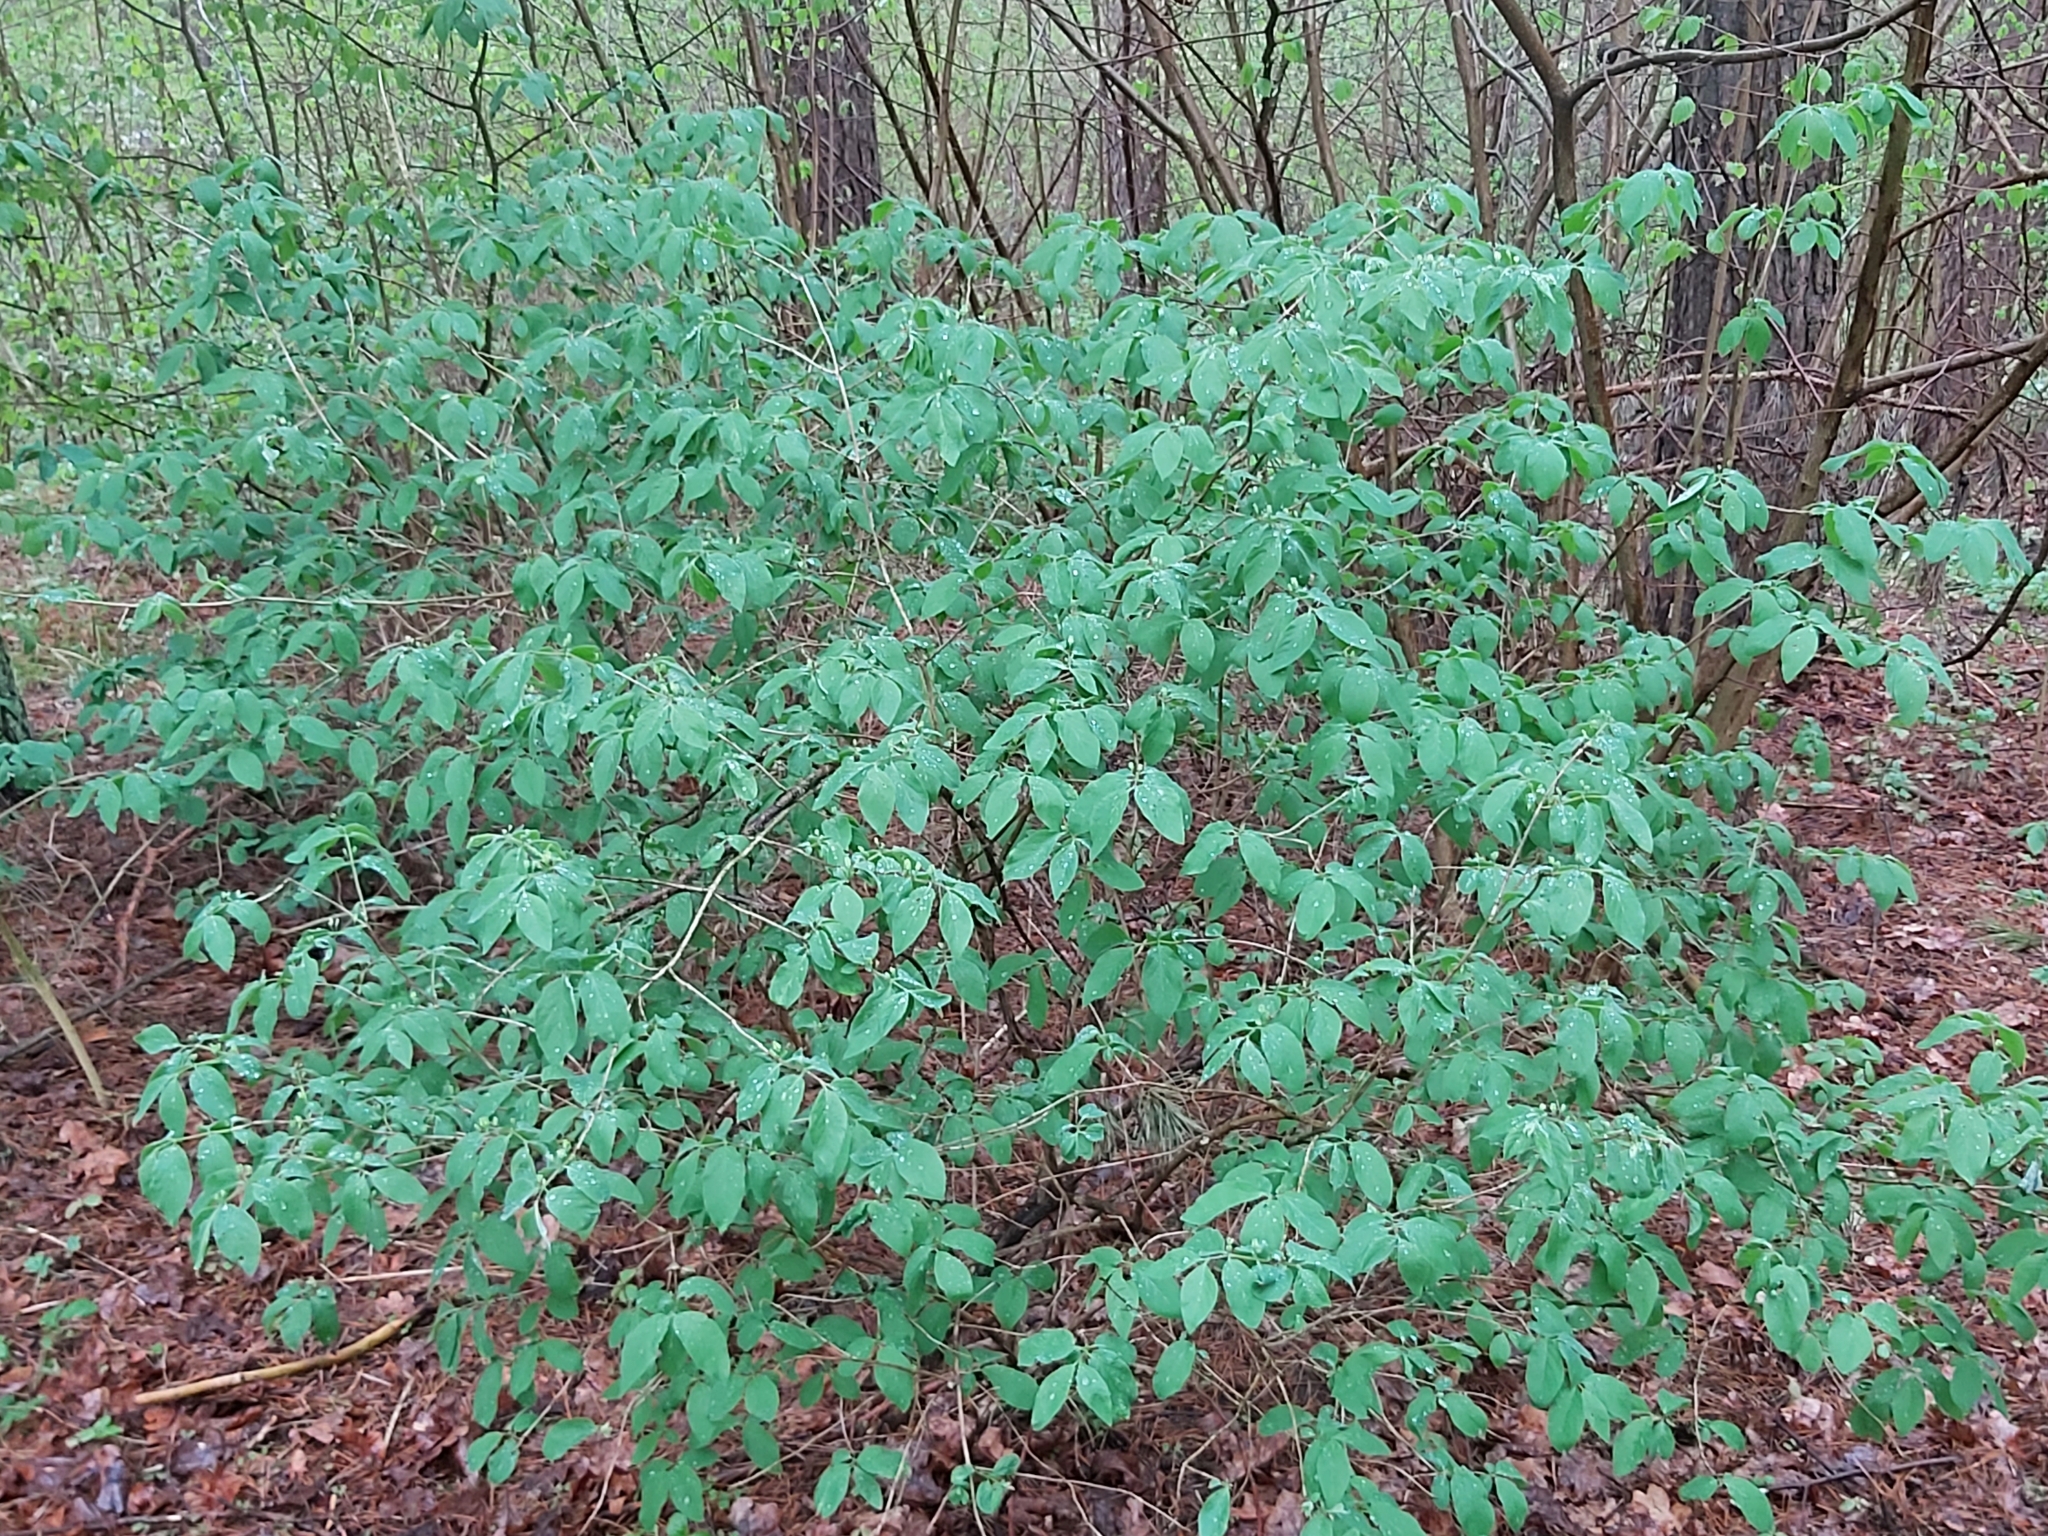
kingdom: Plantae
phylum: Tracheophyta
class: Magnoliopsida
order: Dipsacales
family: Caprifoliaceae
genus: Lonicera
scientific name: Lonicera xylosteum
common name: Fly honeysuckle
